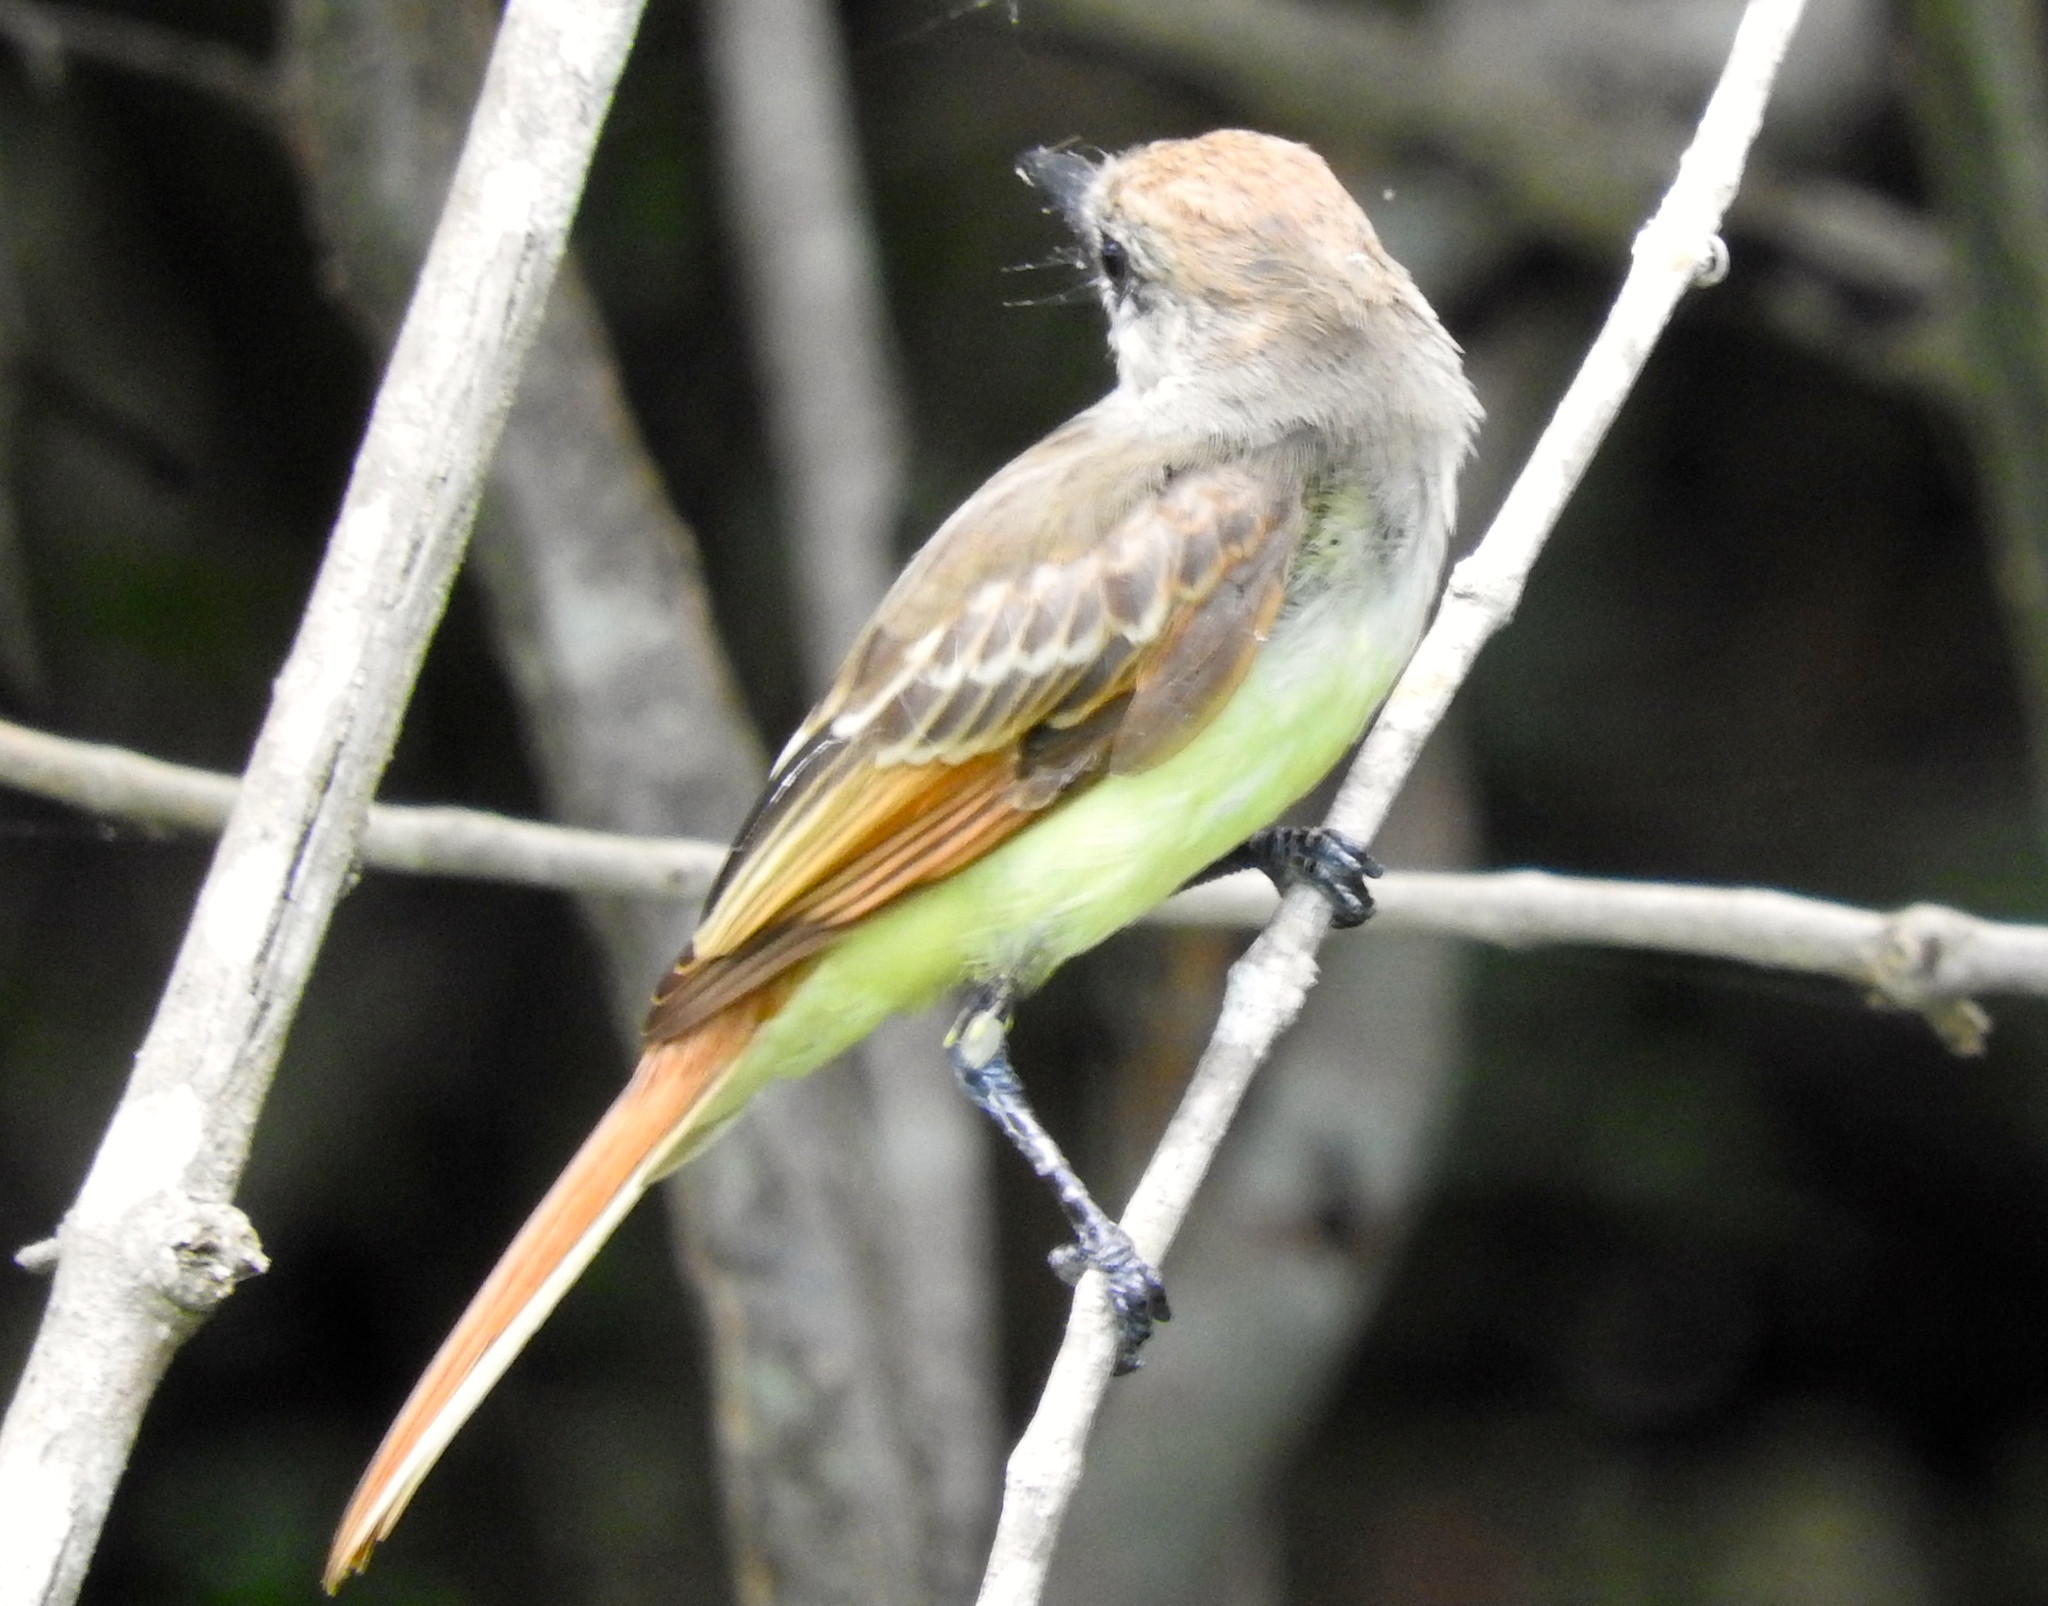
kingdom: Animalia
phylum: Chordata
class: Aves
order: Passeriformes
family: Tyrannidae
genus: Myiarchus
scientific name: Myiarchus
